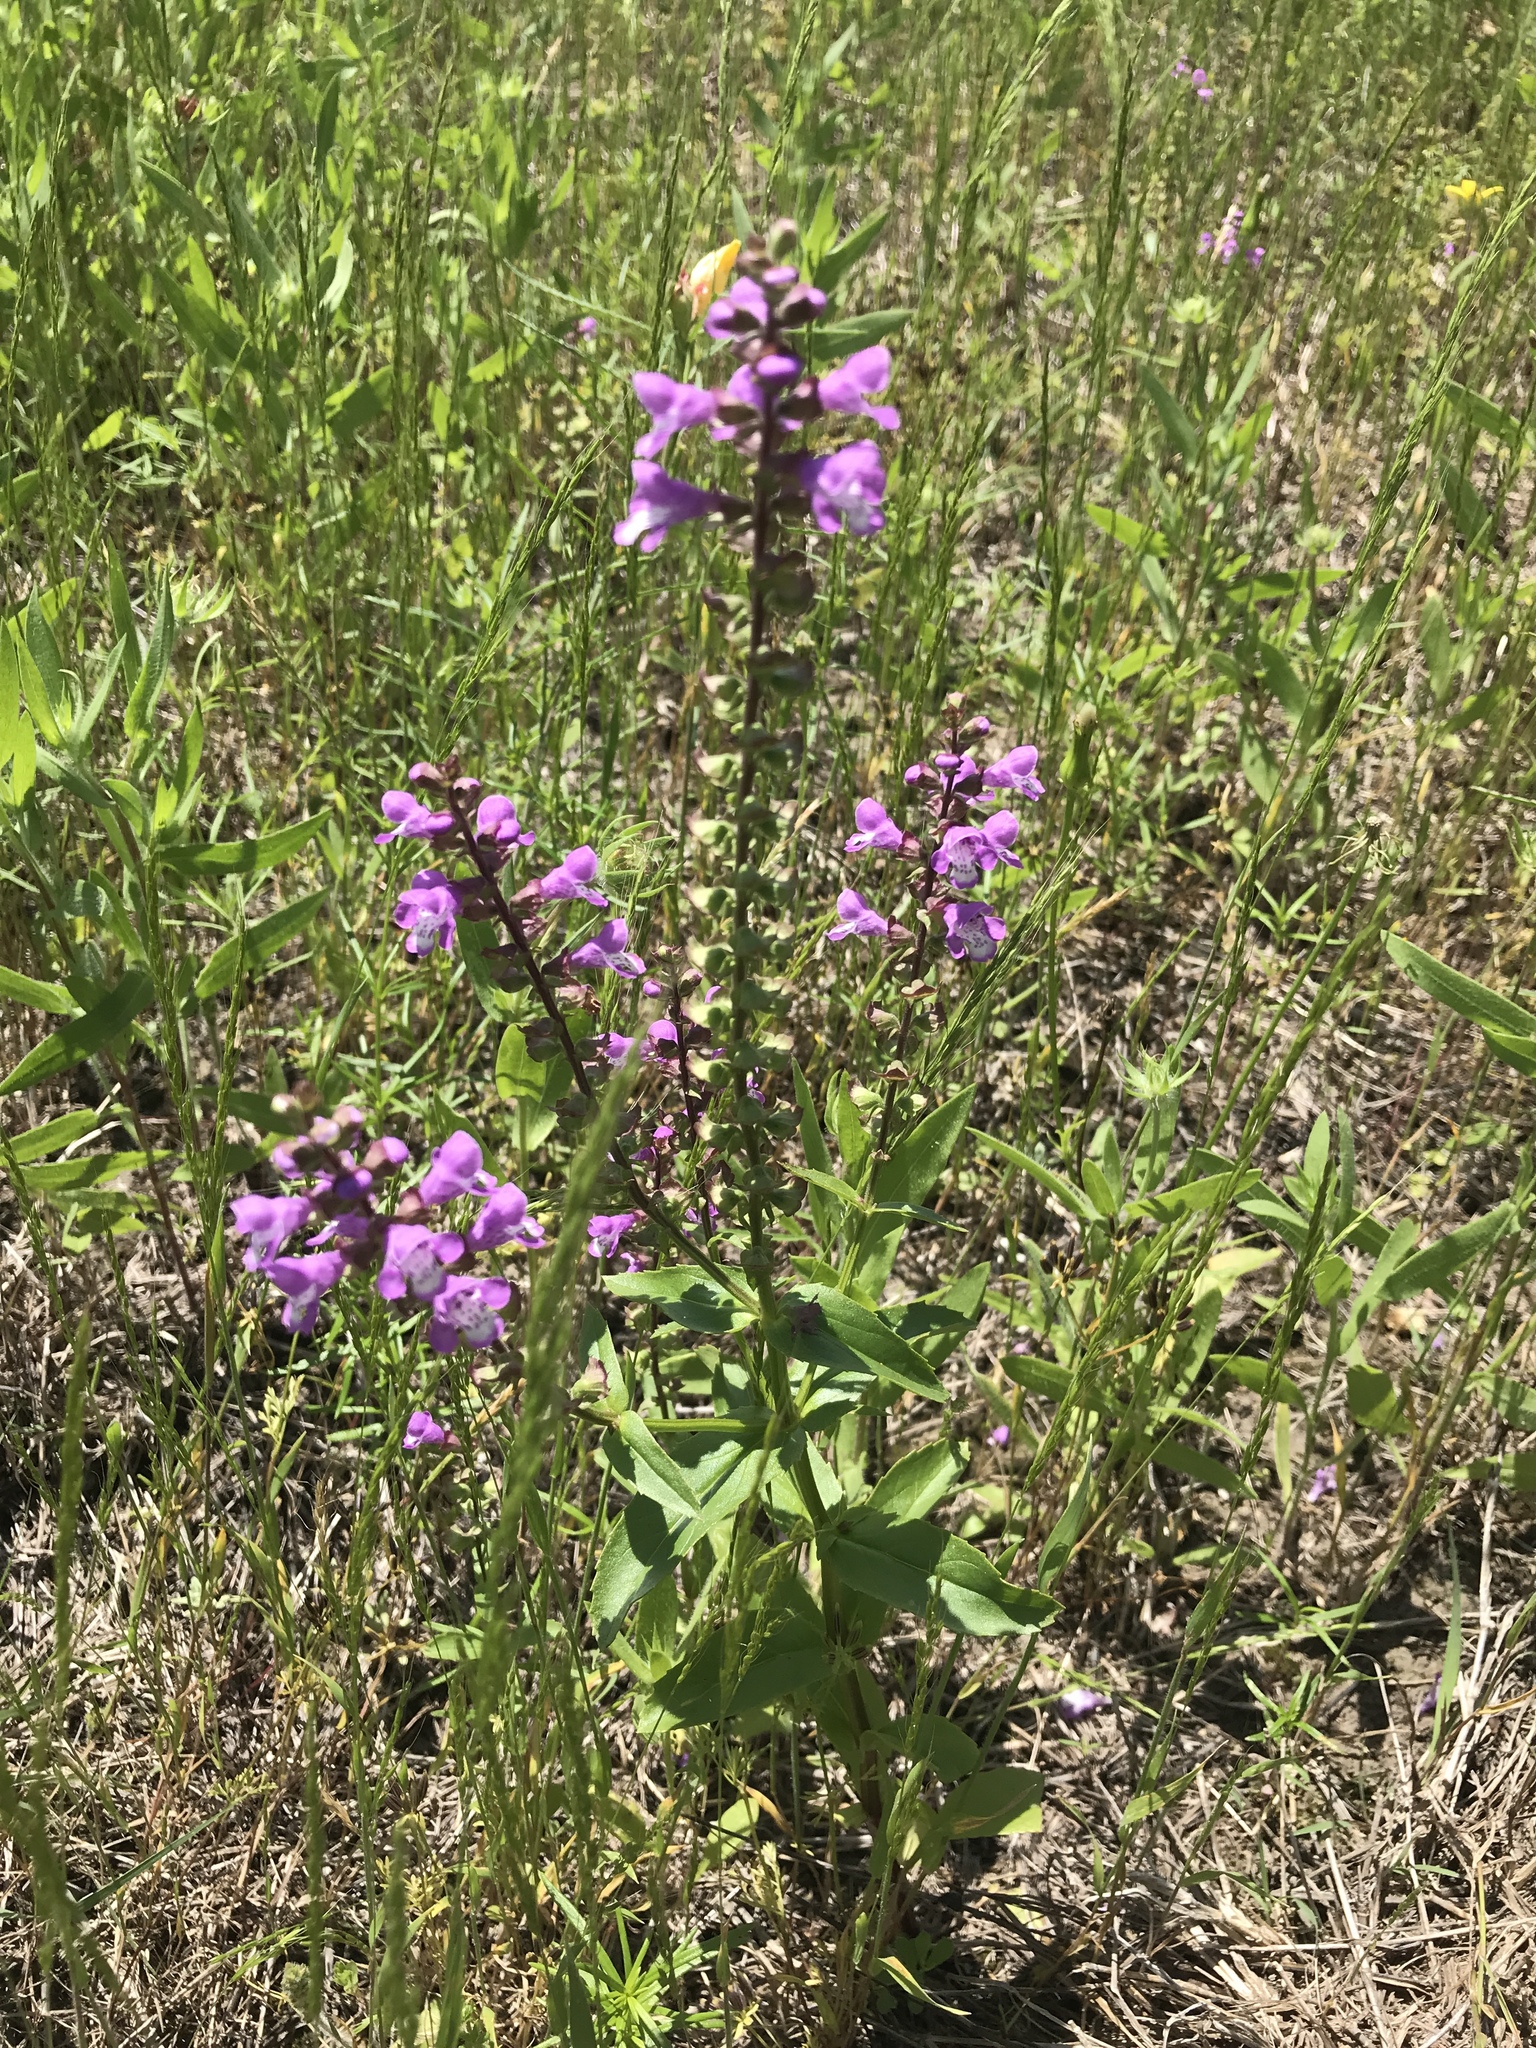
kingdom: Plantae
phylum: Tracheophyta
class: Magnoliopsida
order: Lamiales
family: Lamiaceae
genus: Warnockia
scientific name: Warnockia scutellarioides
